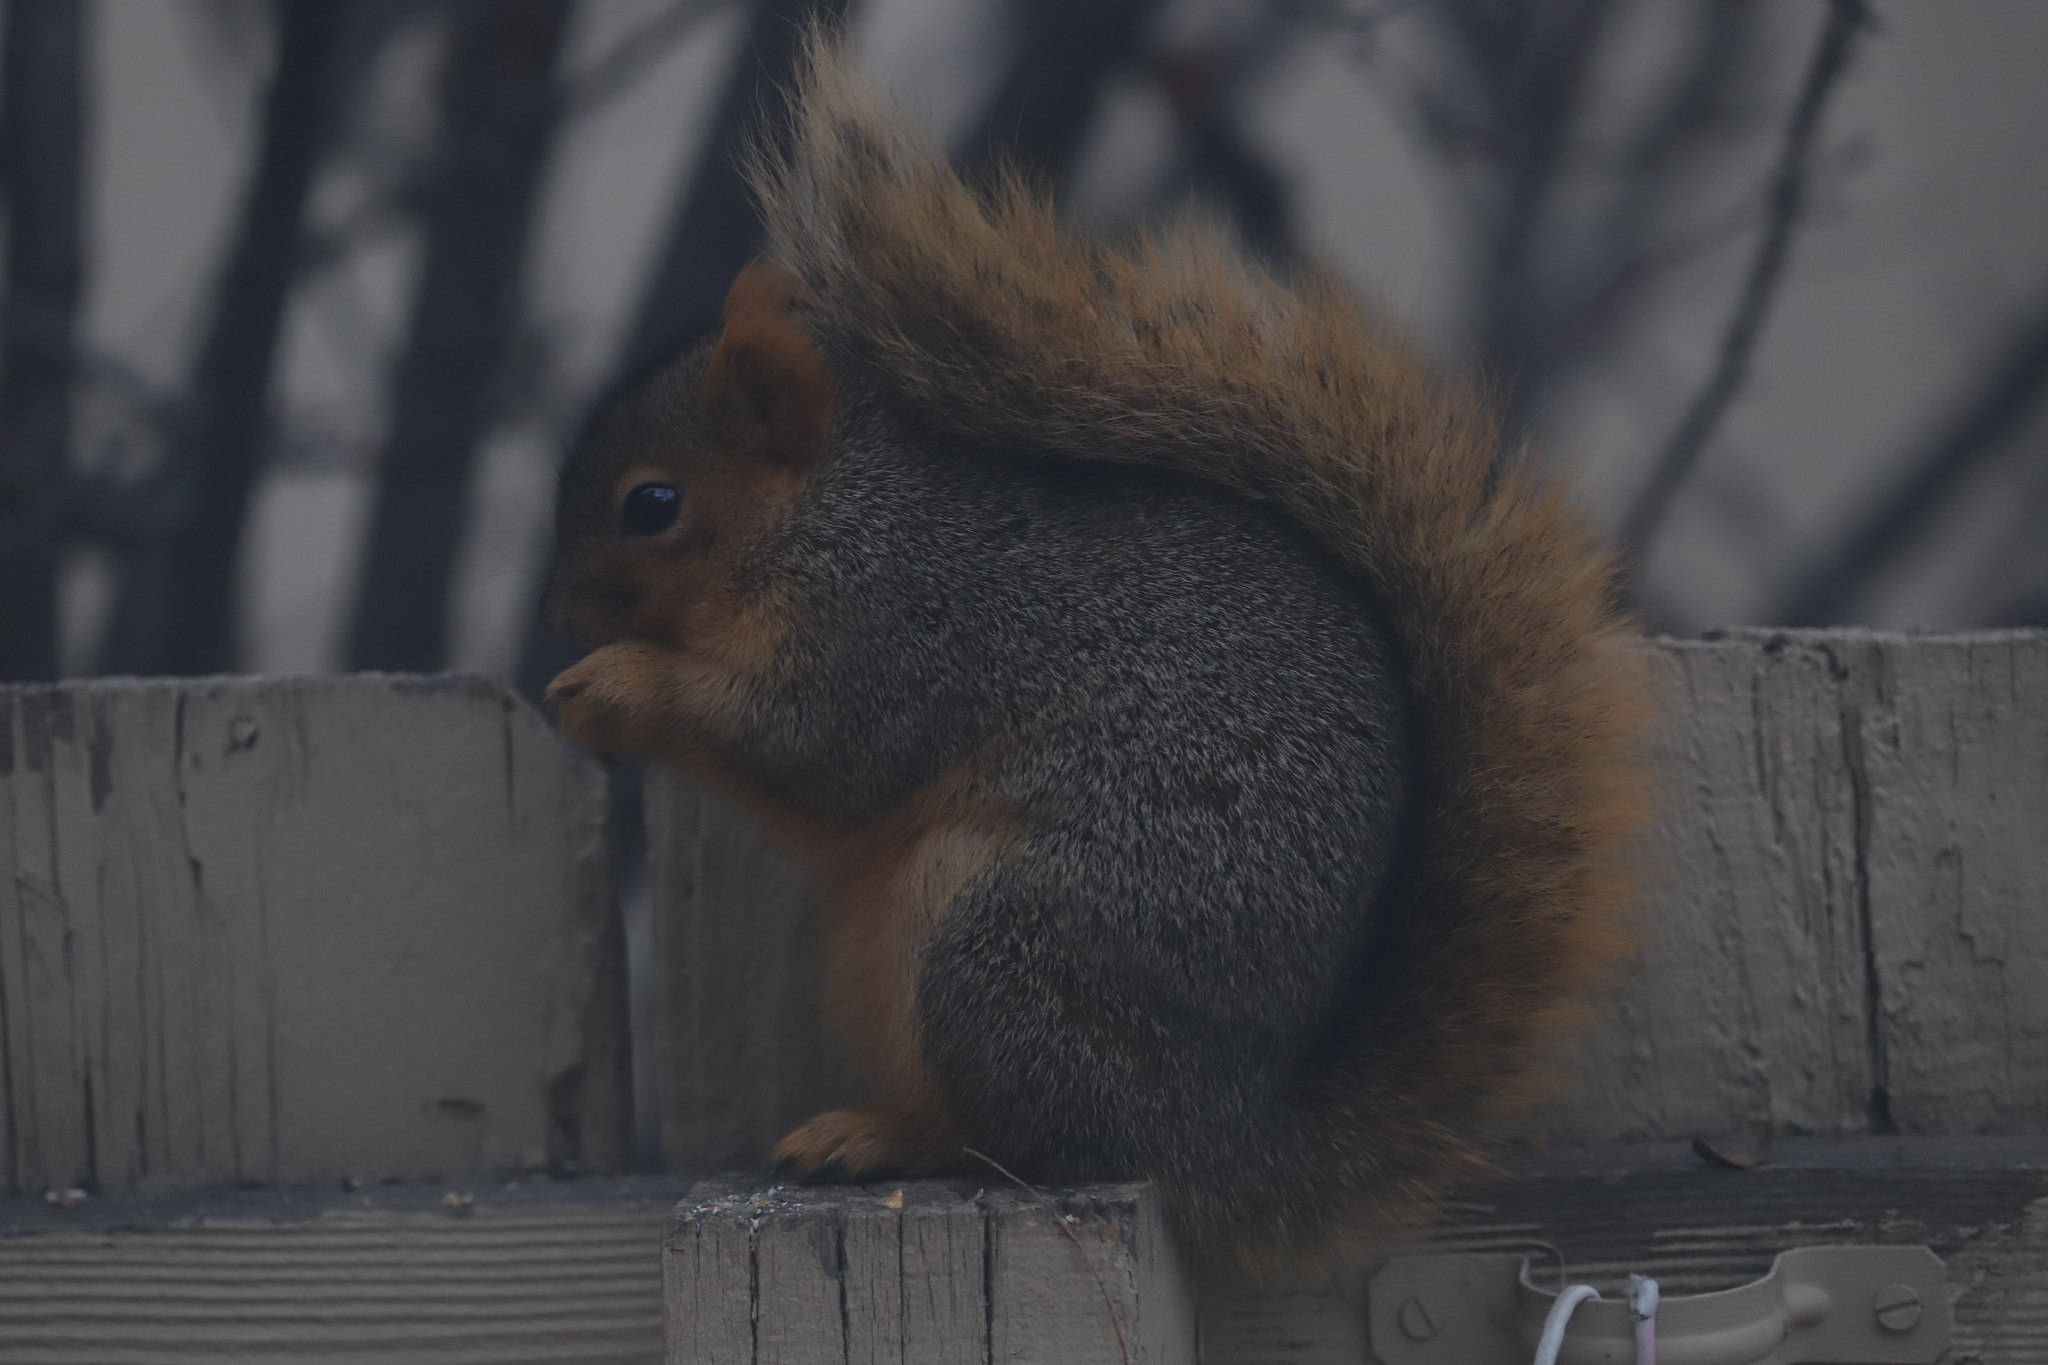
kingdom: Animalia
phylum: Chordata
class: Mammalia
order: Rodentia
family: Sciuridae
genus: Sciurus
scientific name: Sciurus niger
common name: Fox squirrel
